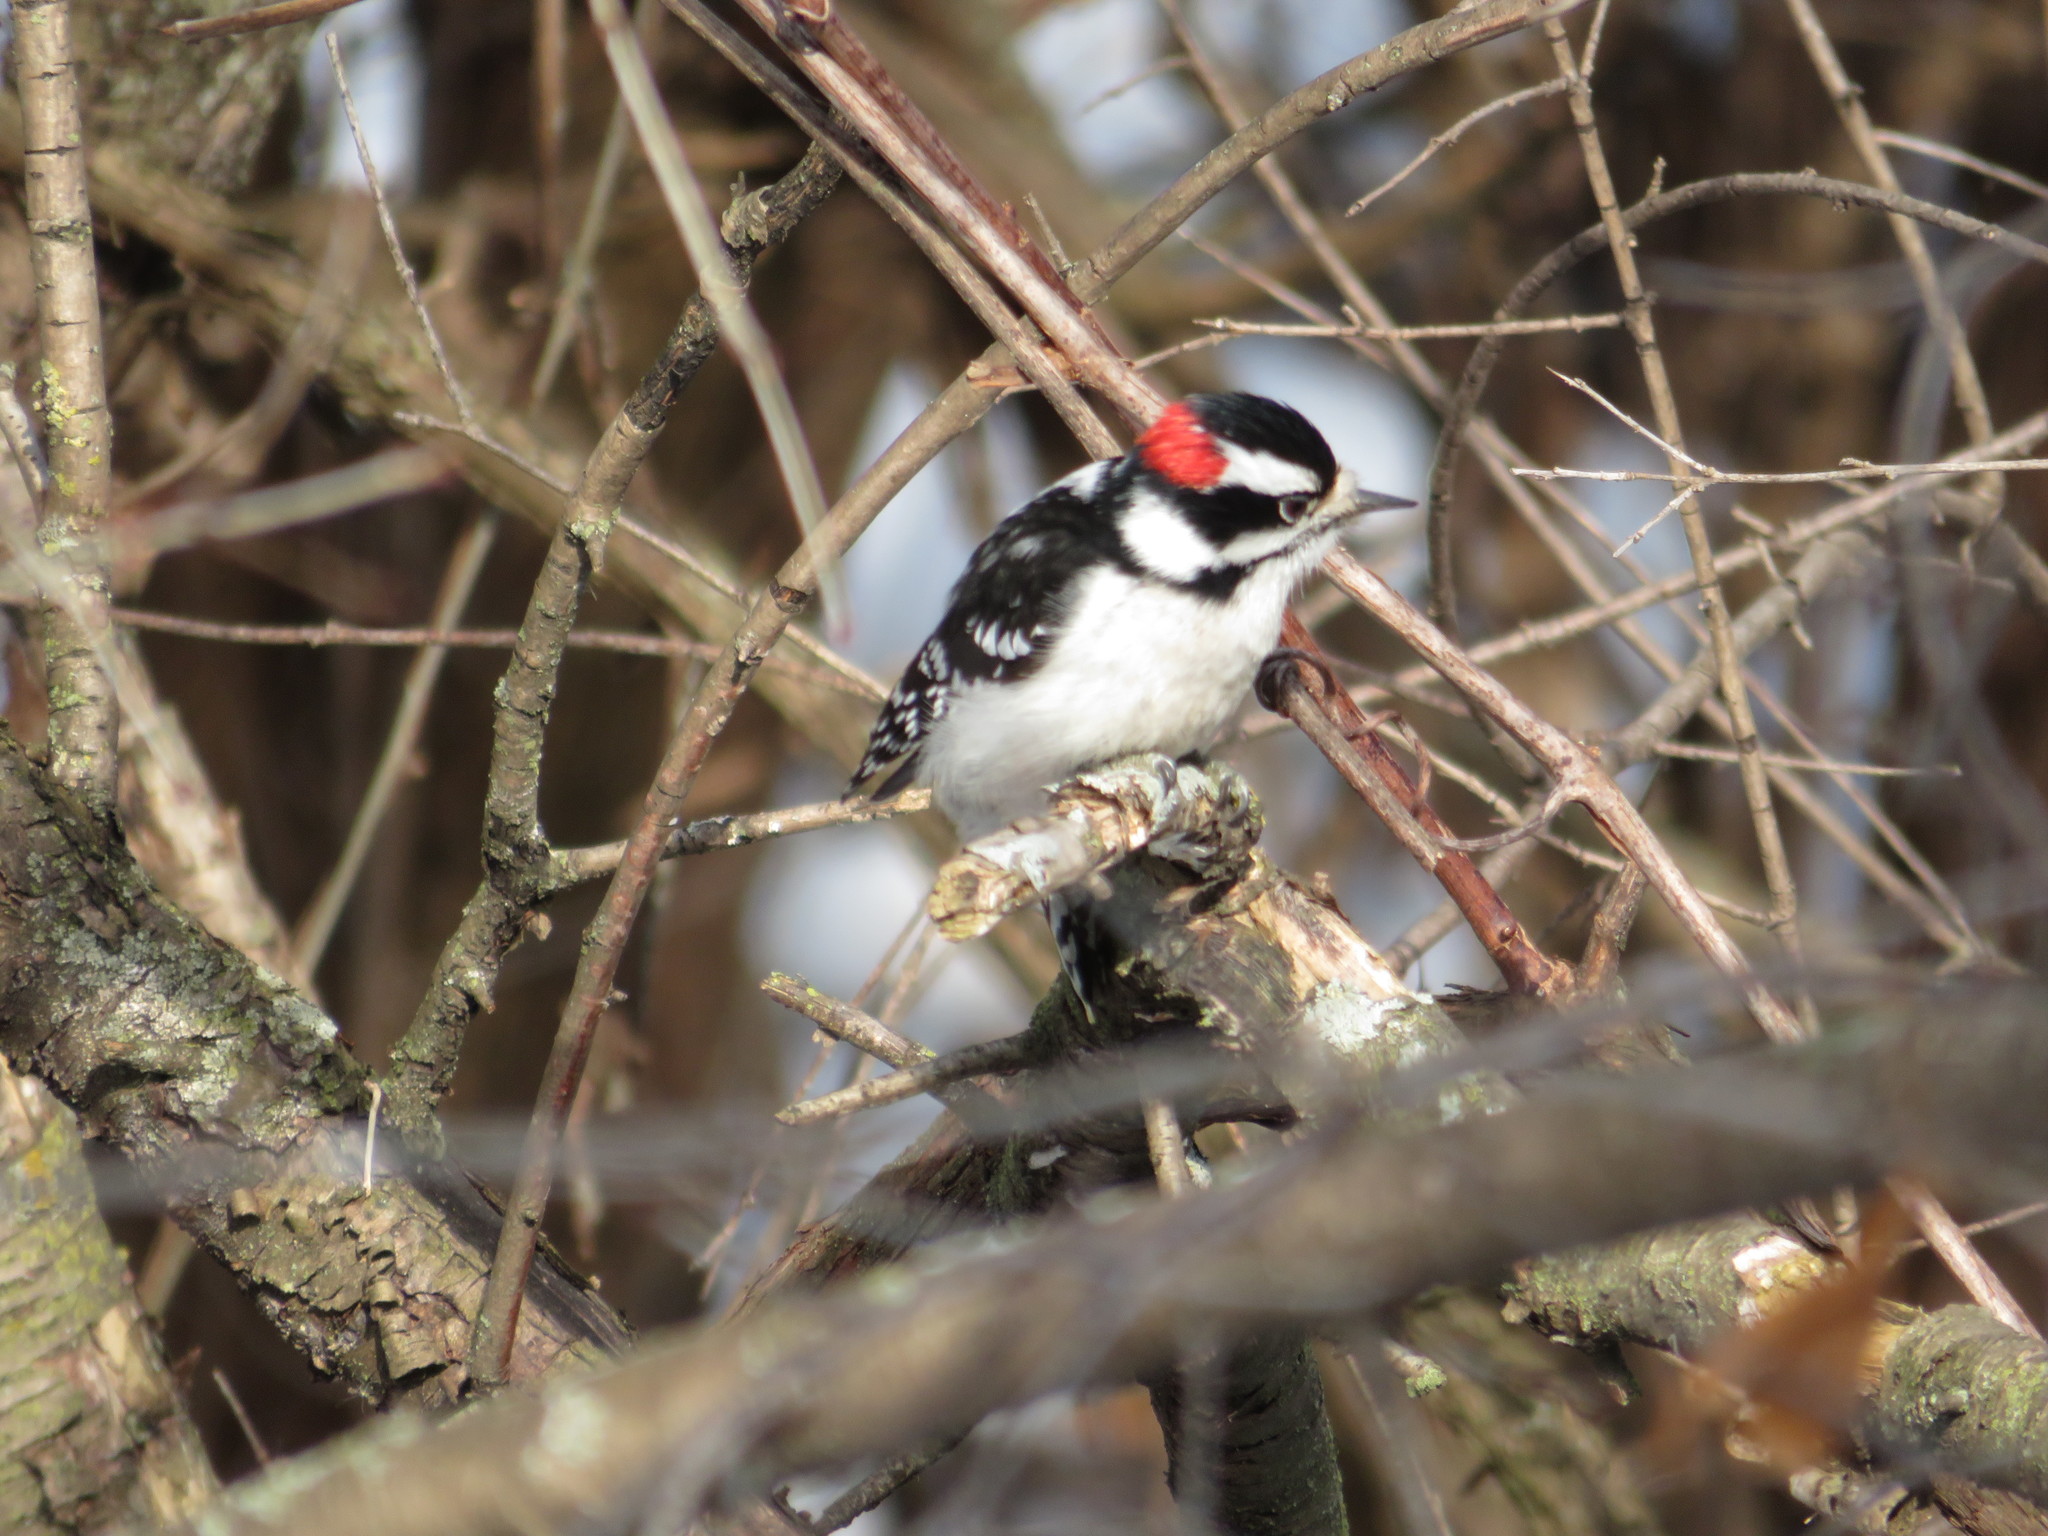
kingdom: Animalia
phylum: Chordata
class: Aves
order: Piciformes
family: Picidae
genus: Dryobates
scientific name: Dryobates pubescens
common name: Downy woodpecker
